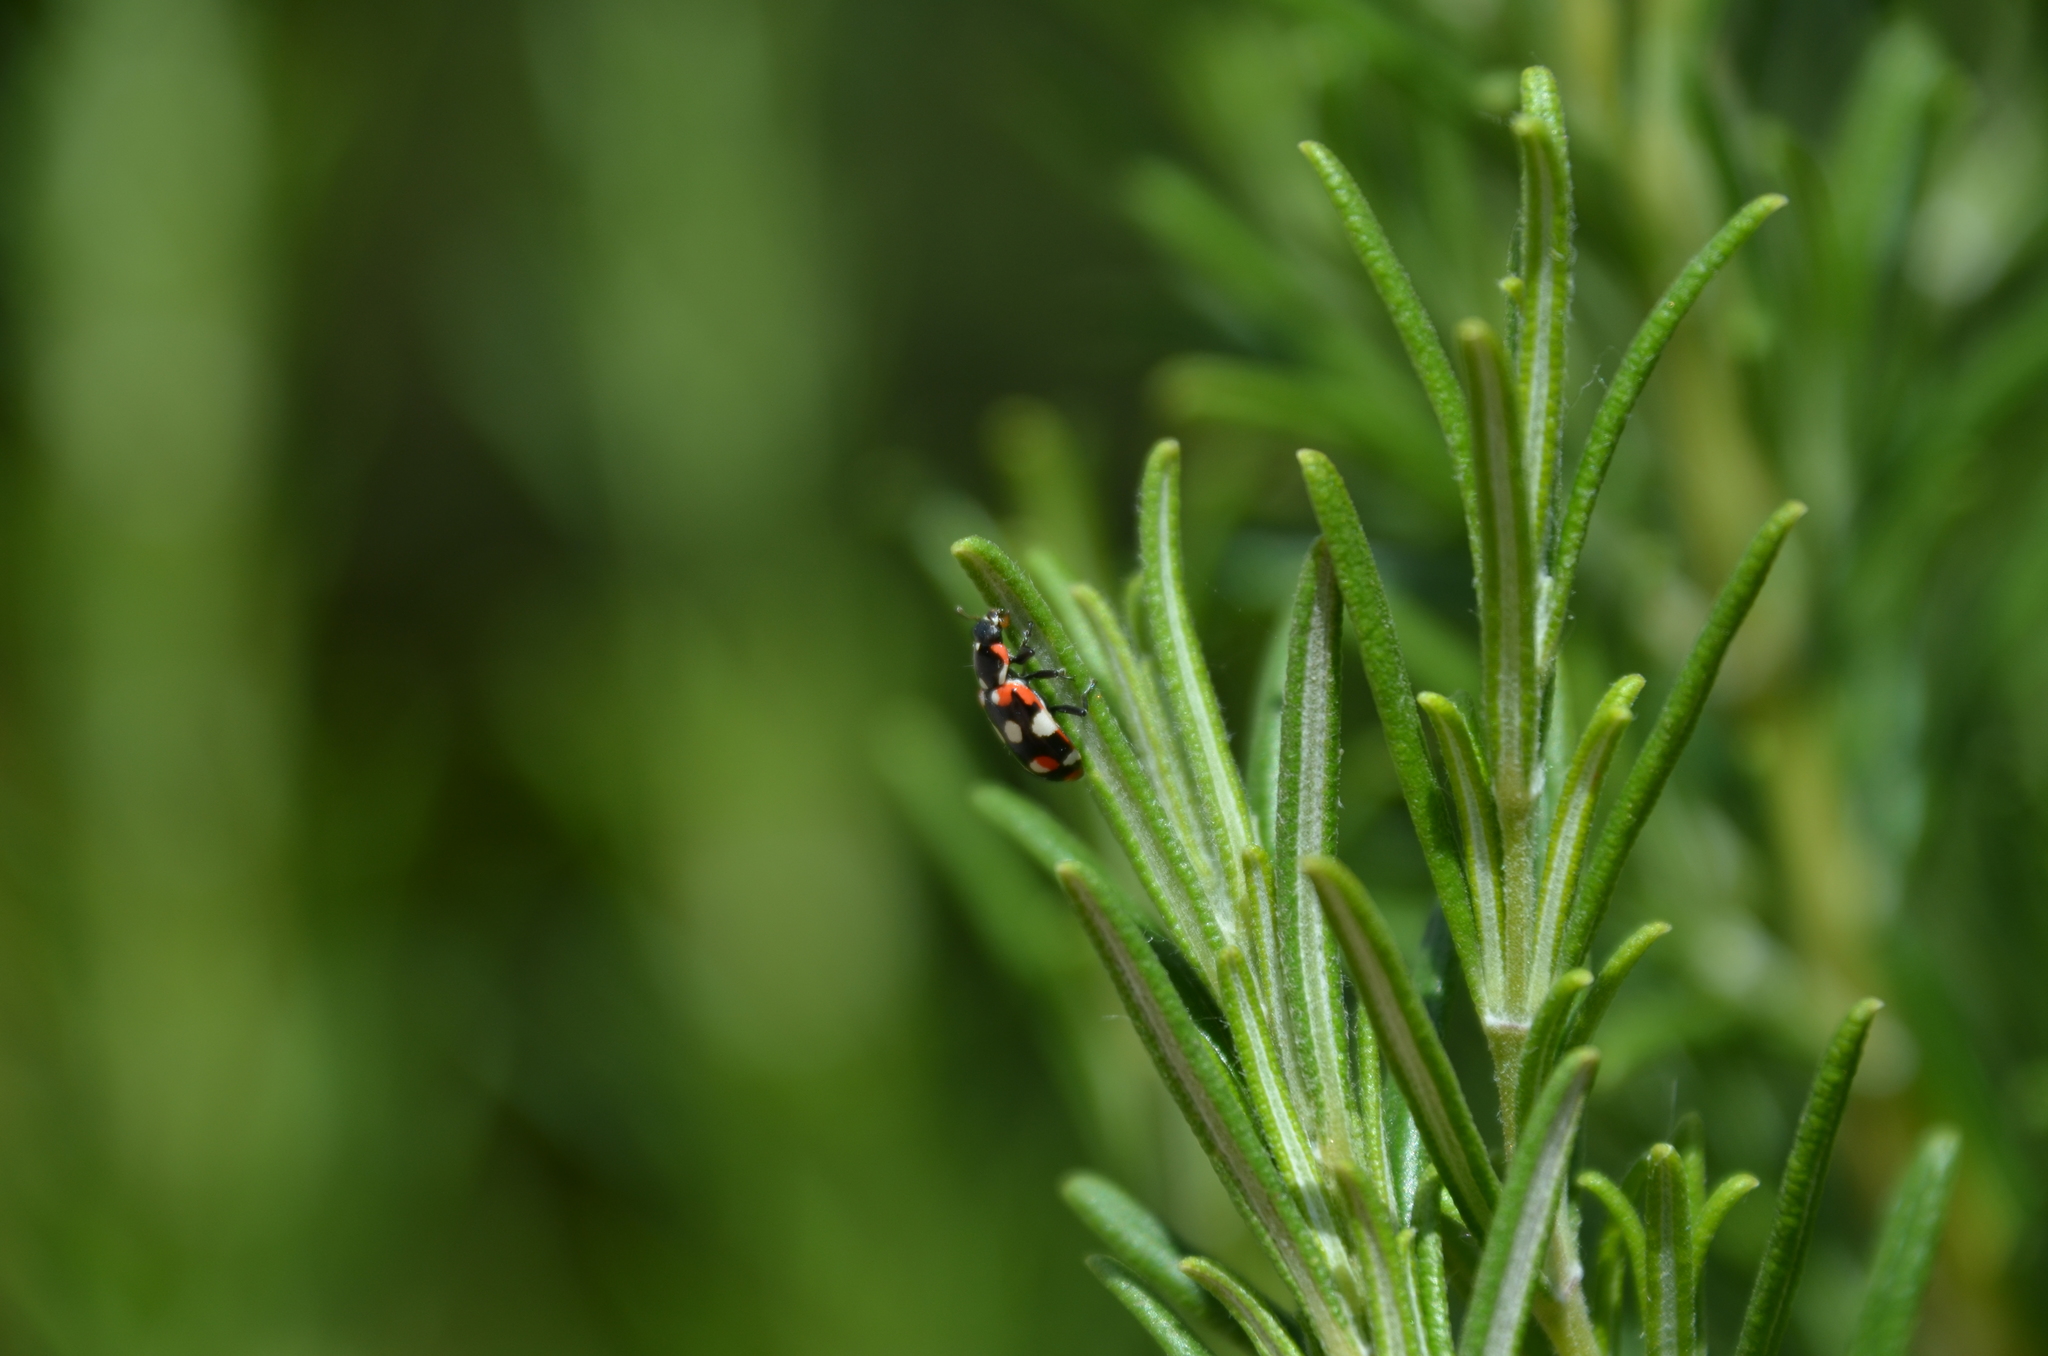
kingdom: Animalia
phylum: Arthropoda
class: Insecta
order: Coleoptera
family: Coccinellidae
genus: Eriopis
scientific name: Eriopis connexa
